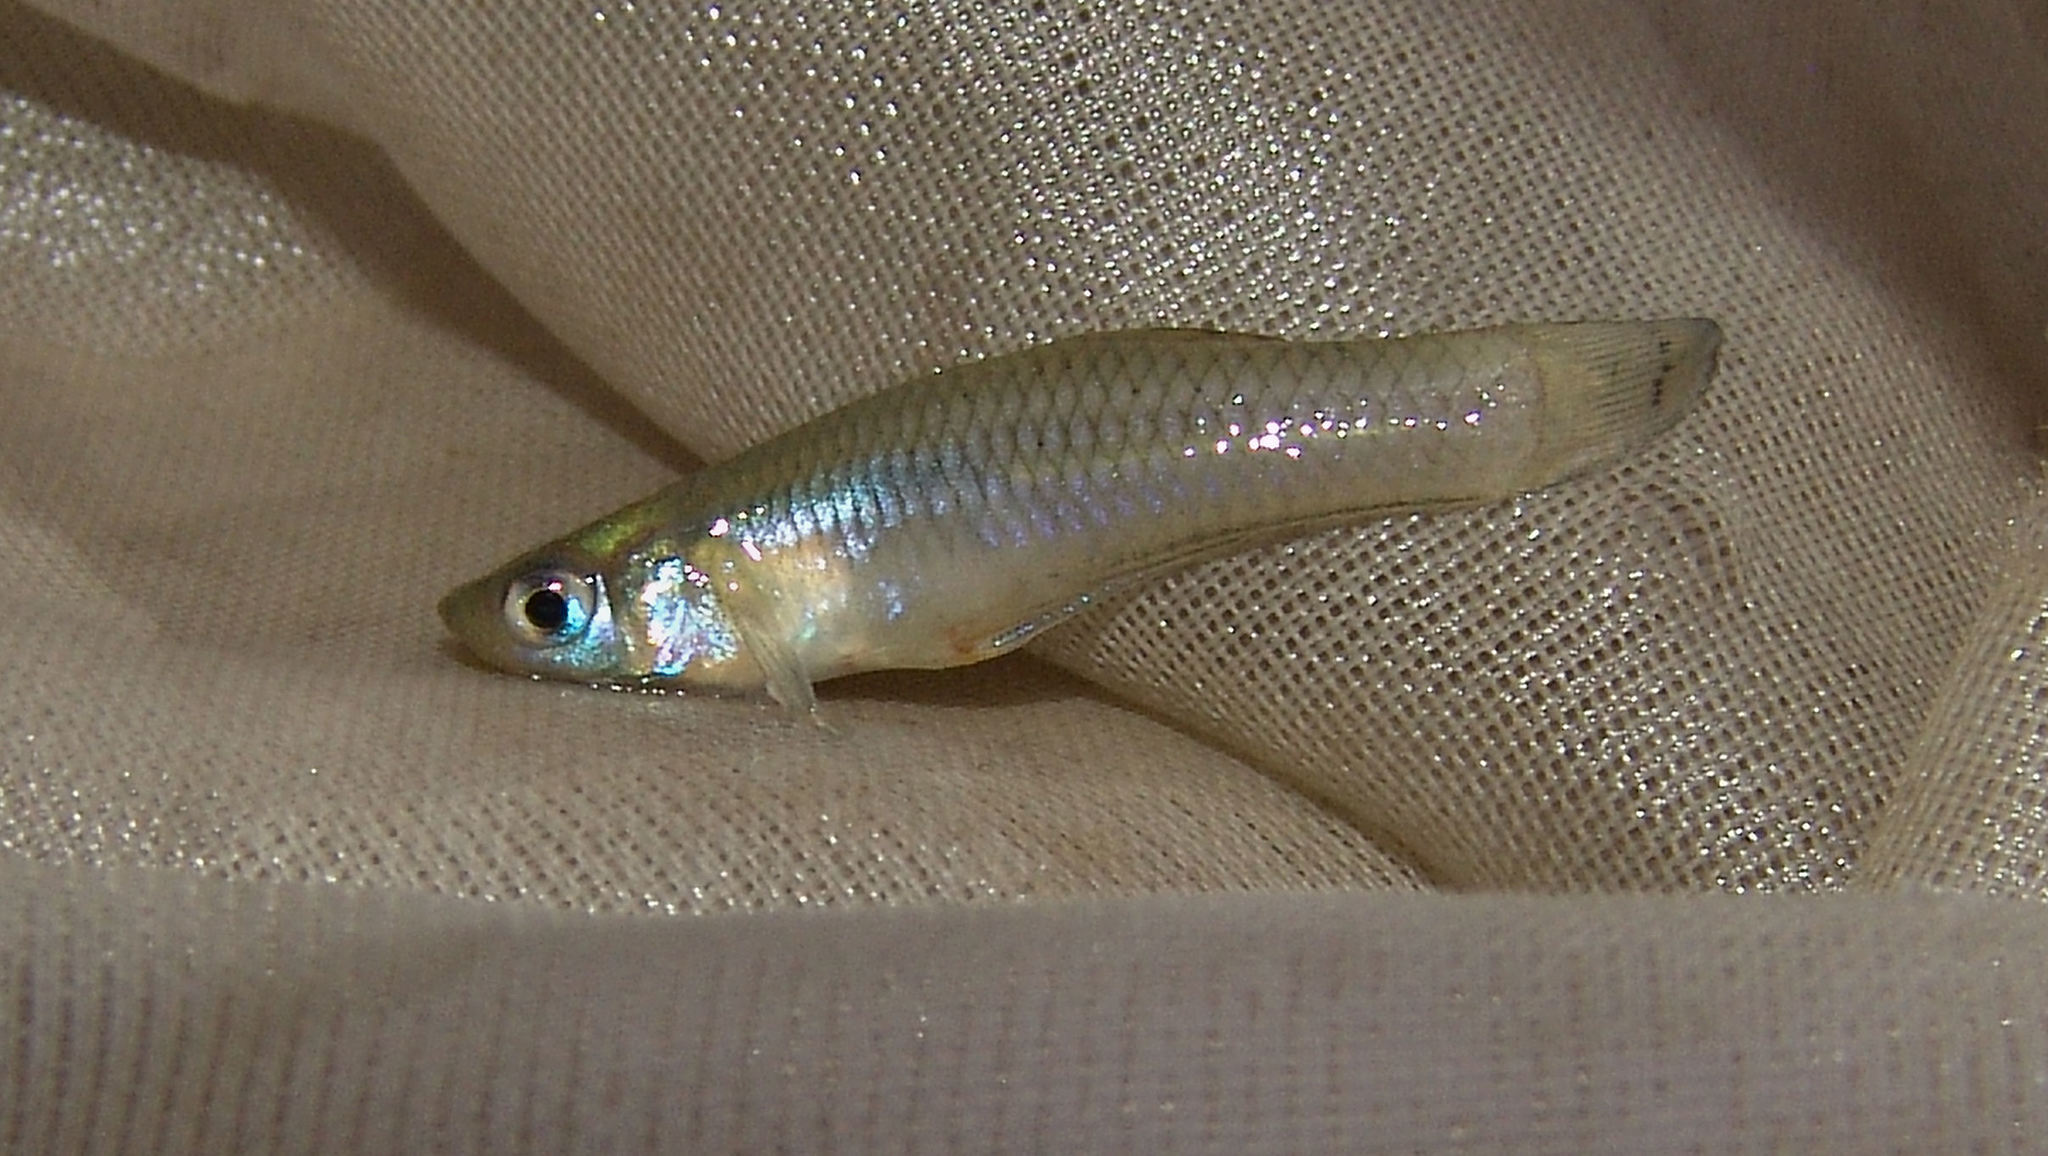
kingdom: Animalia
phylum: Chordata
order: Cyprinodontiformes
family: Poeciliidae
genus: Gambusia
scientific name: Gambusia affinis
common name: Mosquitofish
